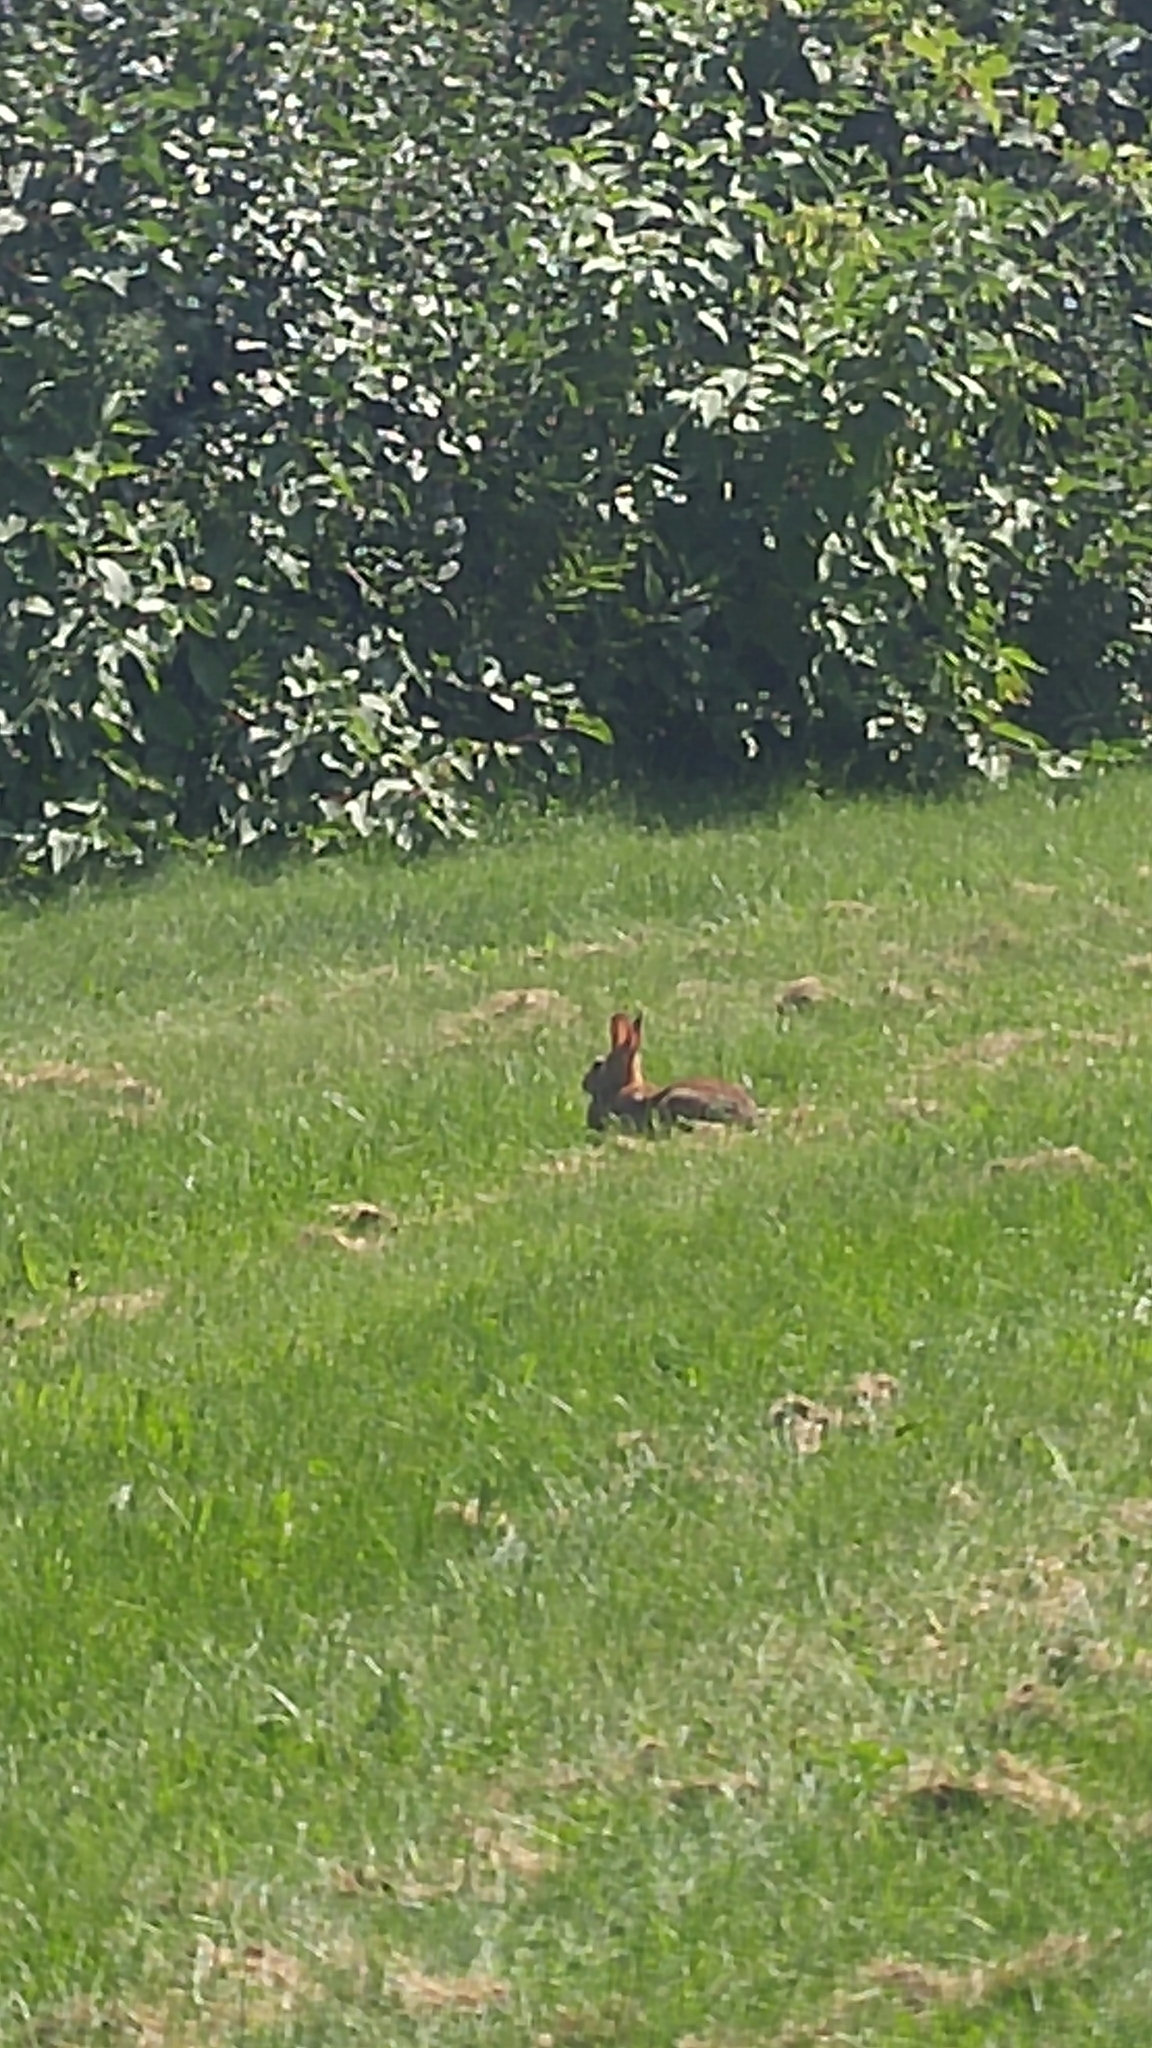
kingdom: Animalia
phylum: Chordata
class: Mammalia
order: Lagomorpha
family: Leporidae
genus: Sylvilagus
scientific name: Sylvilagus floridanus
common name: Eastern cottontail
